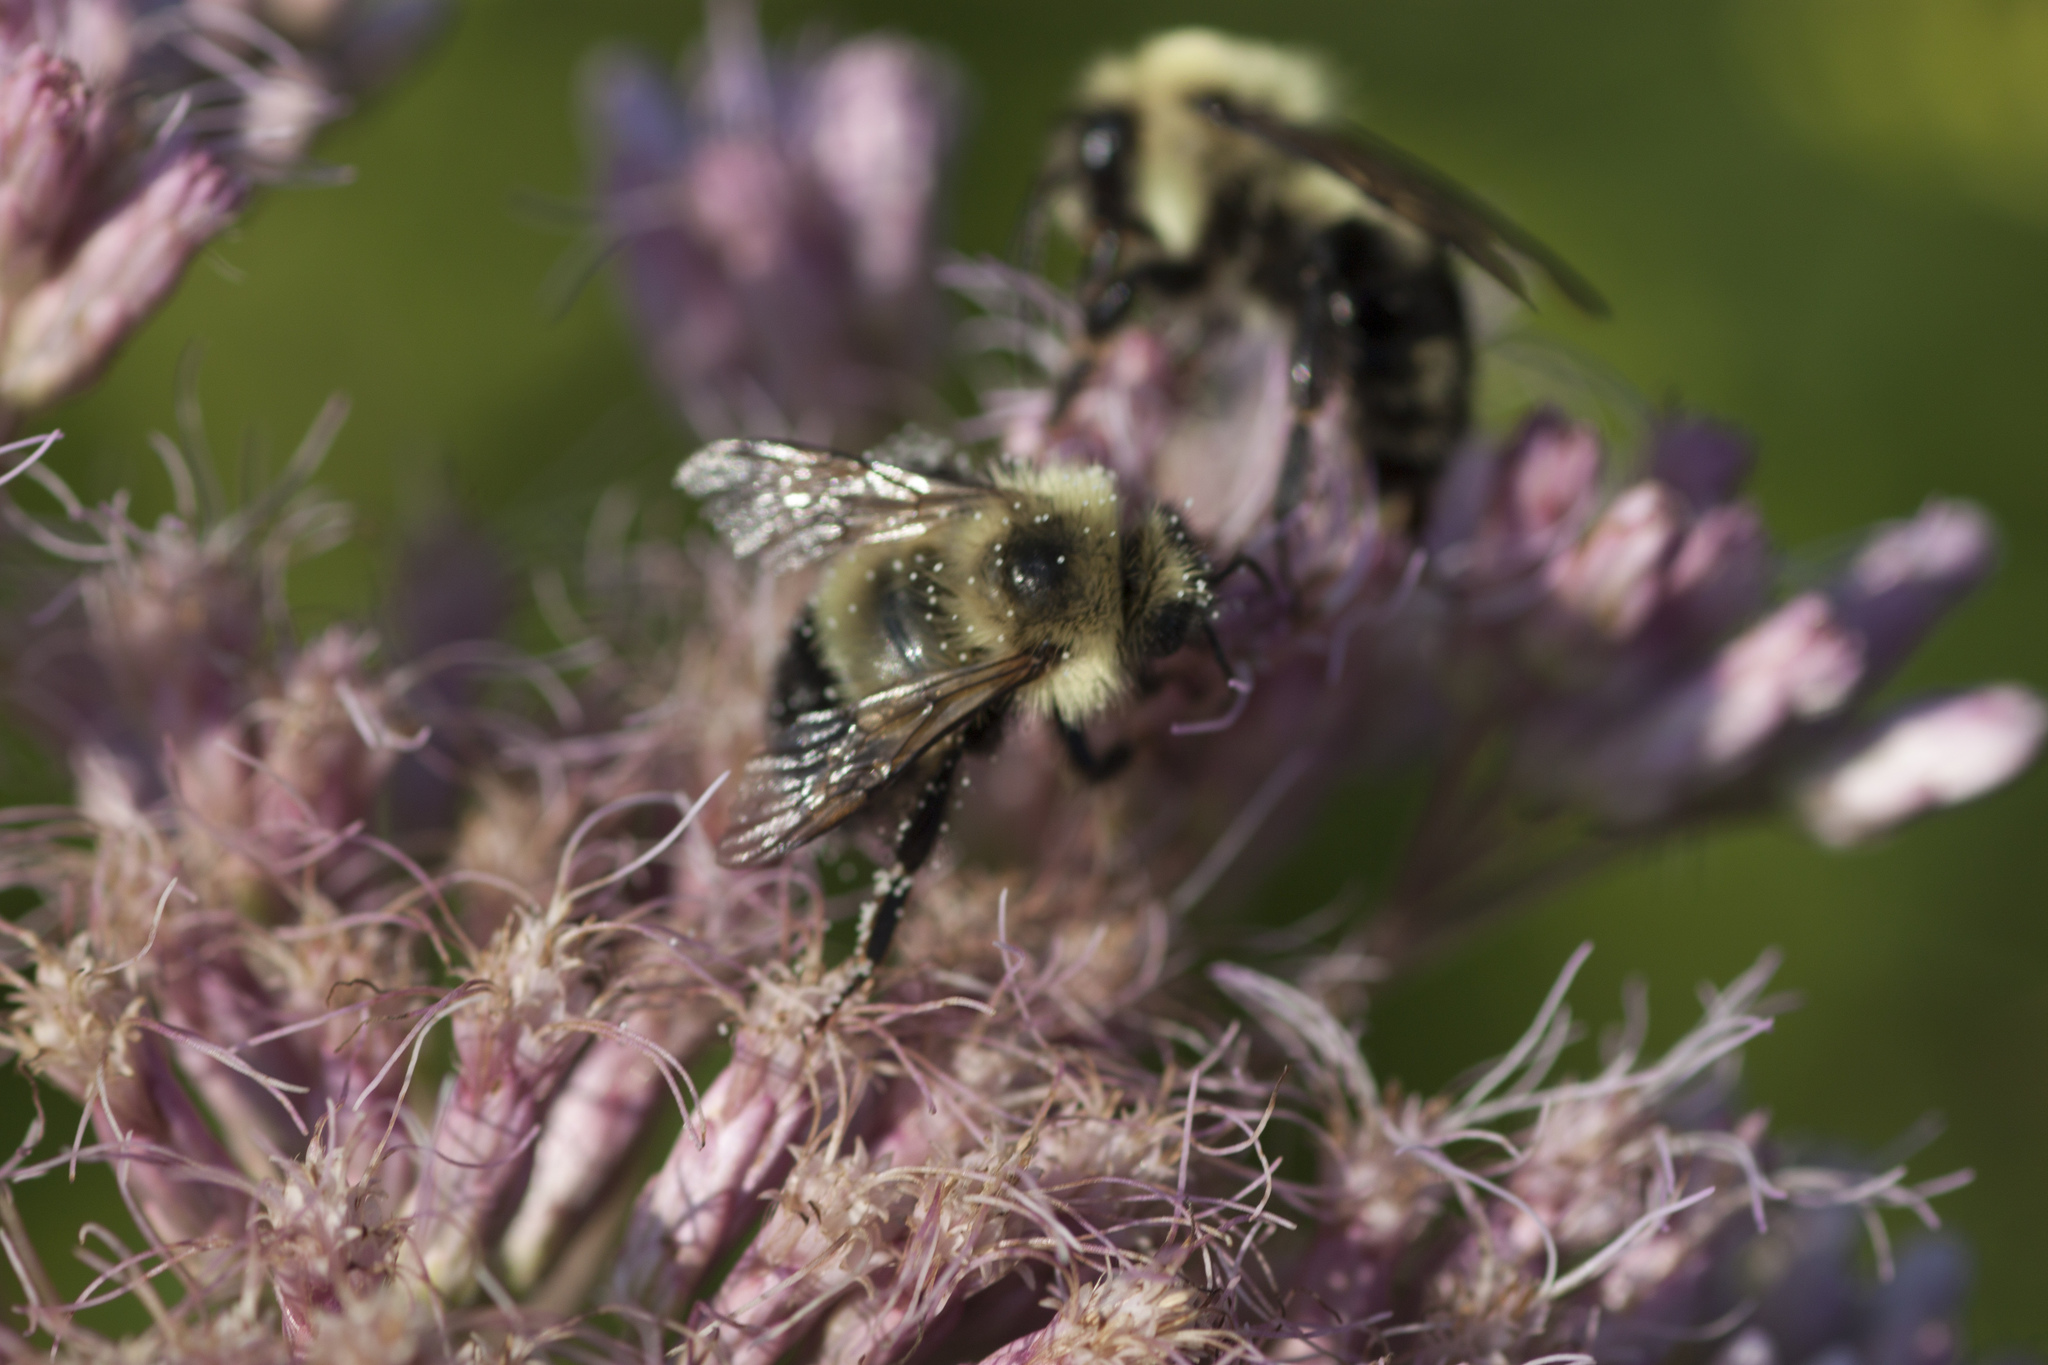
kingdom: Animalia
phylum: Arthropoda
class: Insecta
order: Hymenoptera
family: Apidae
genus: Pyrobombus
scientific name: Pyrobombus
